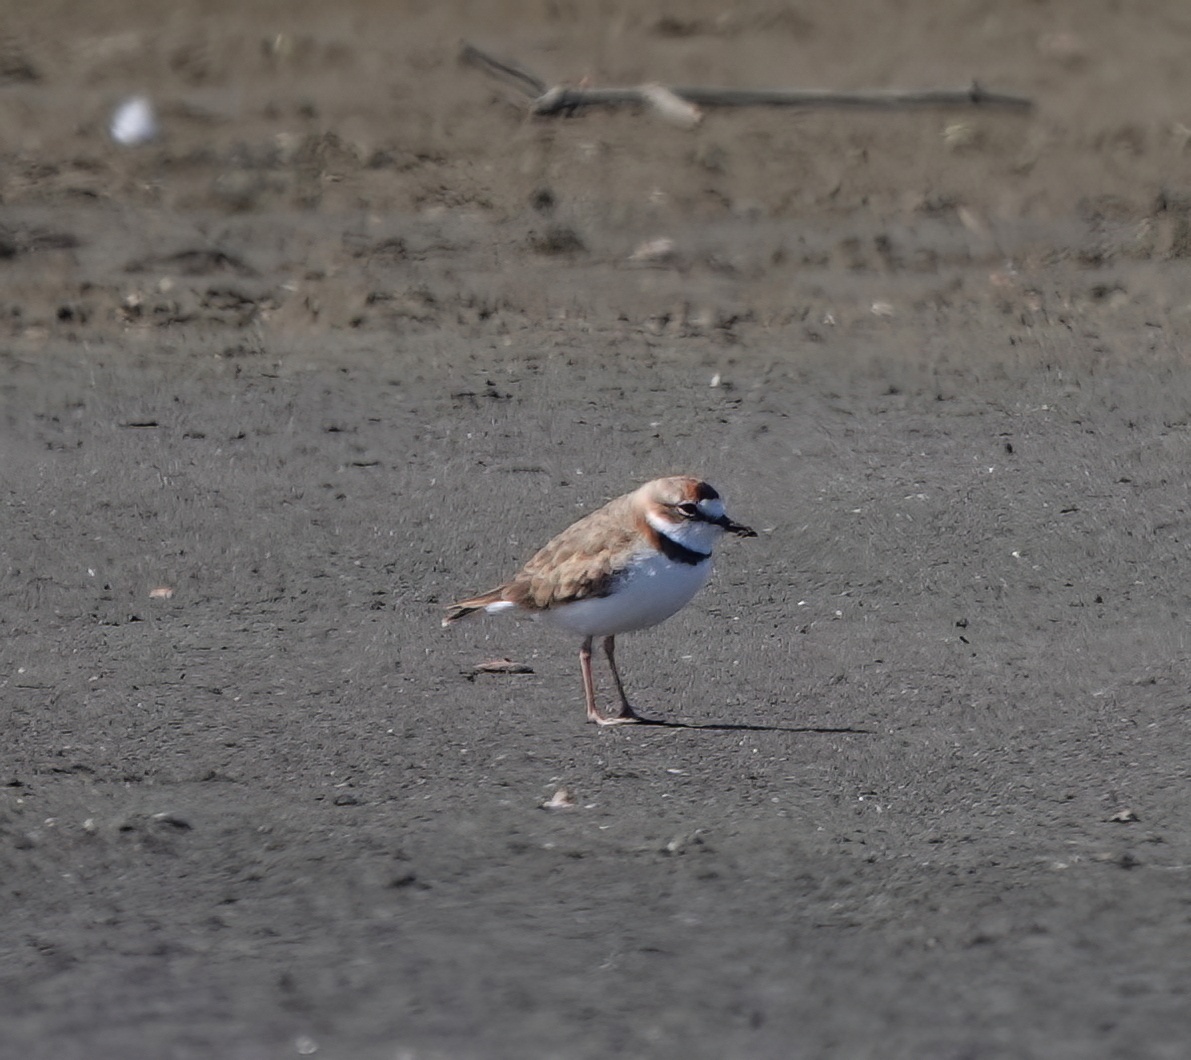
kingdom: Animalia
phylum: Chordata
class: Aves
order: Charadriiformes
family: Charadriidae
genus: Anarhynchus
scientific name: Anarhynchus
